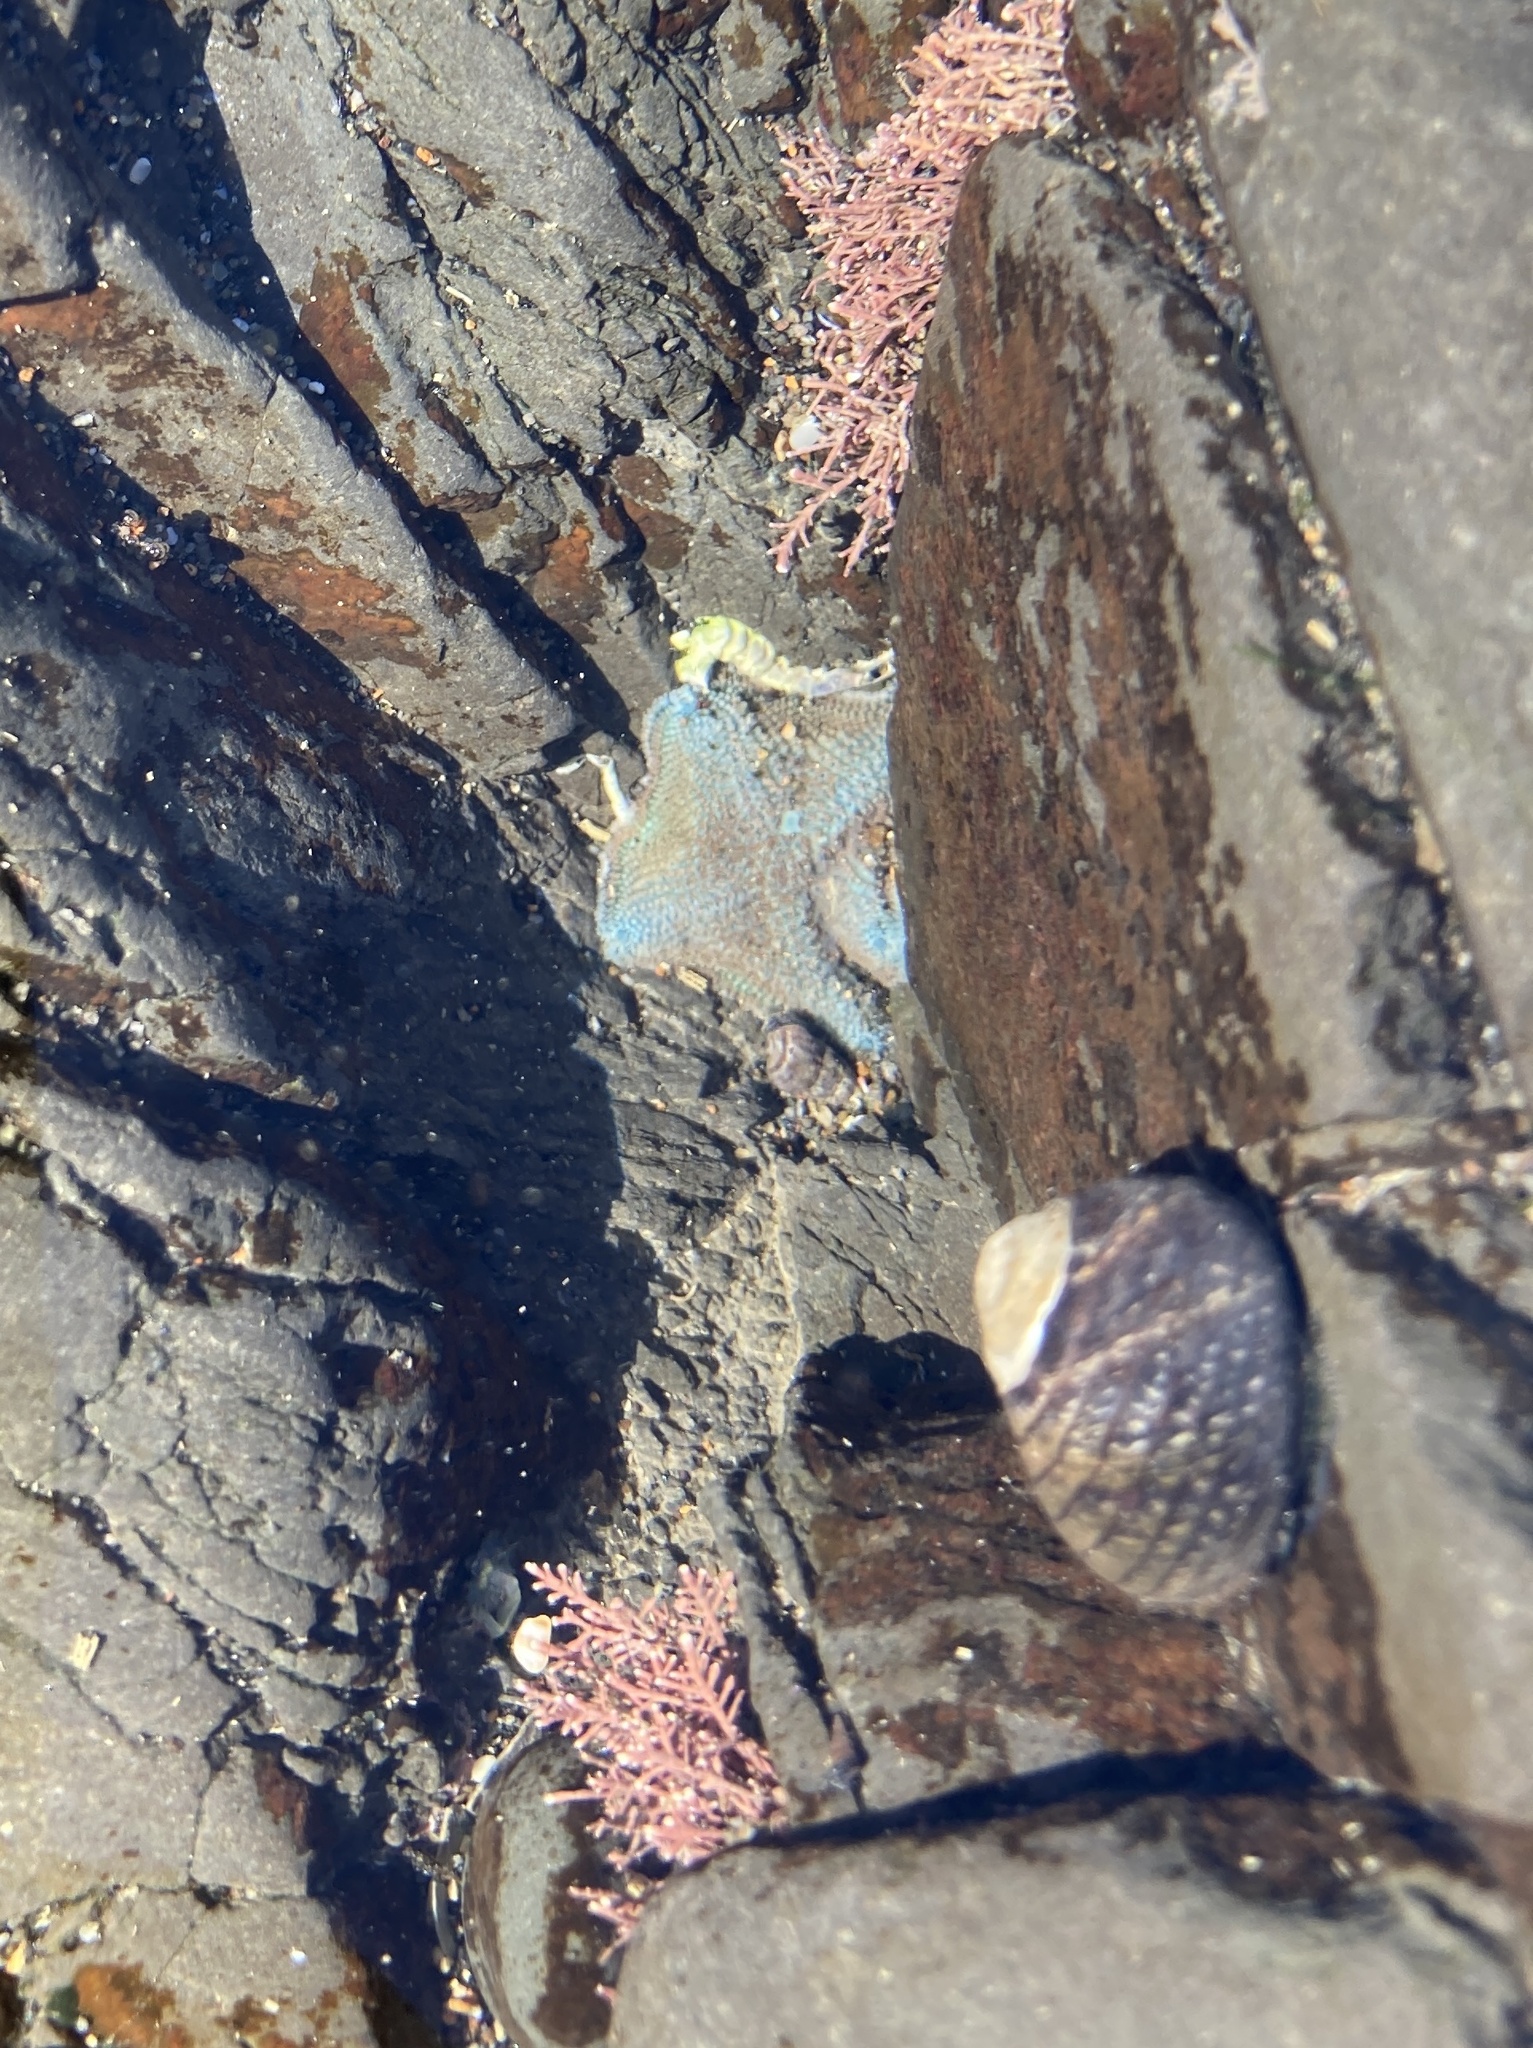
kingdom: Animalia
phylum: Echinodermata
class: Asteroidea
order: Valvatida
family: Asterinidae
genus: Patiriella
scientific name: Patiriella regularis
